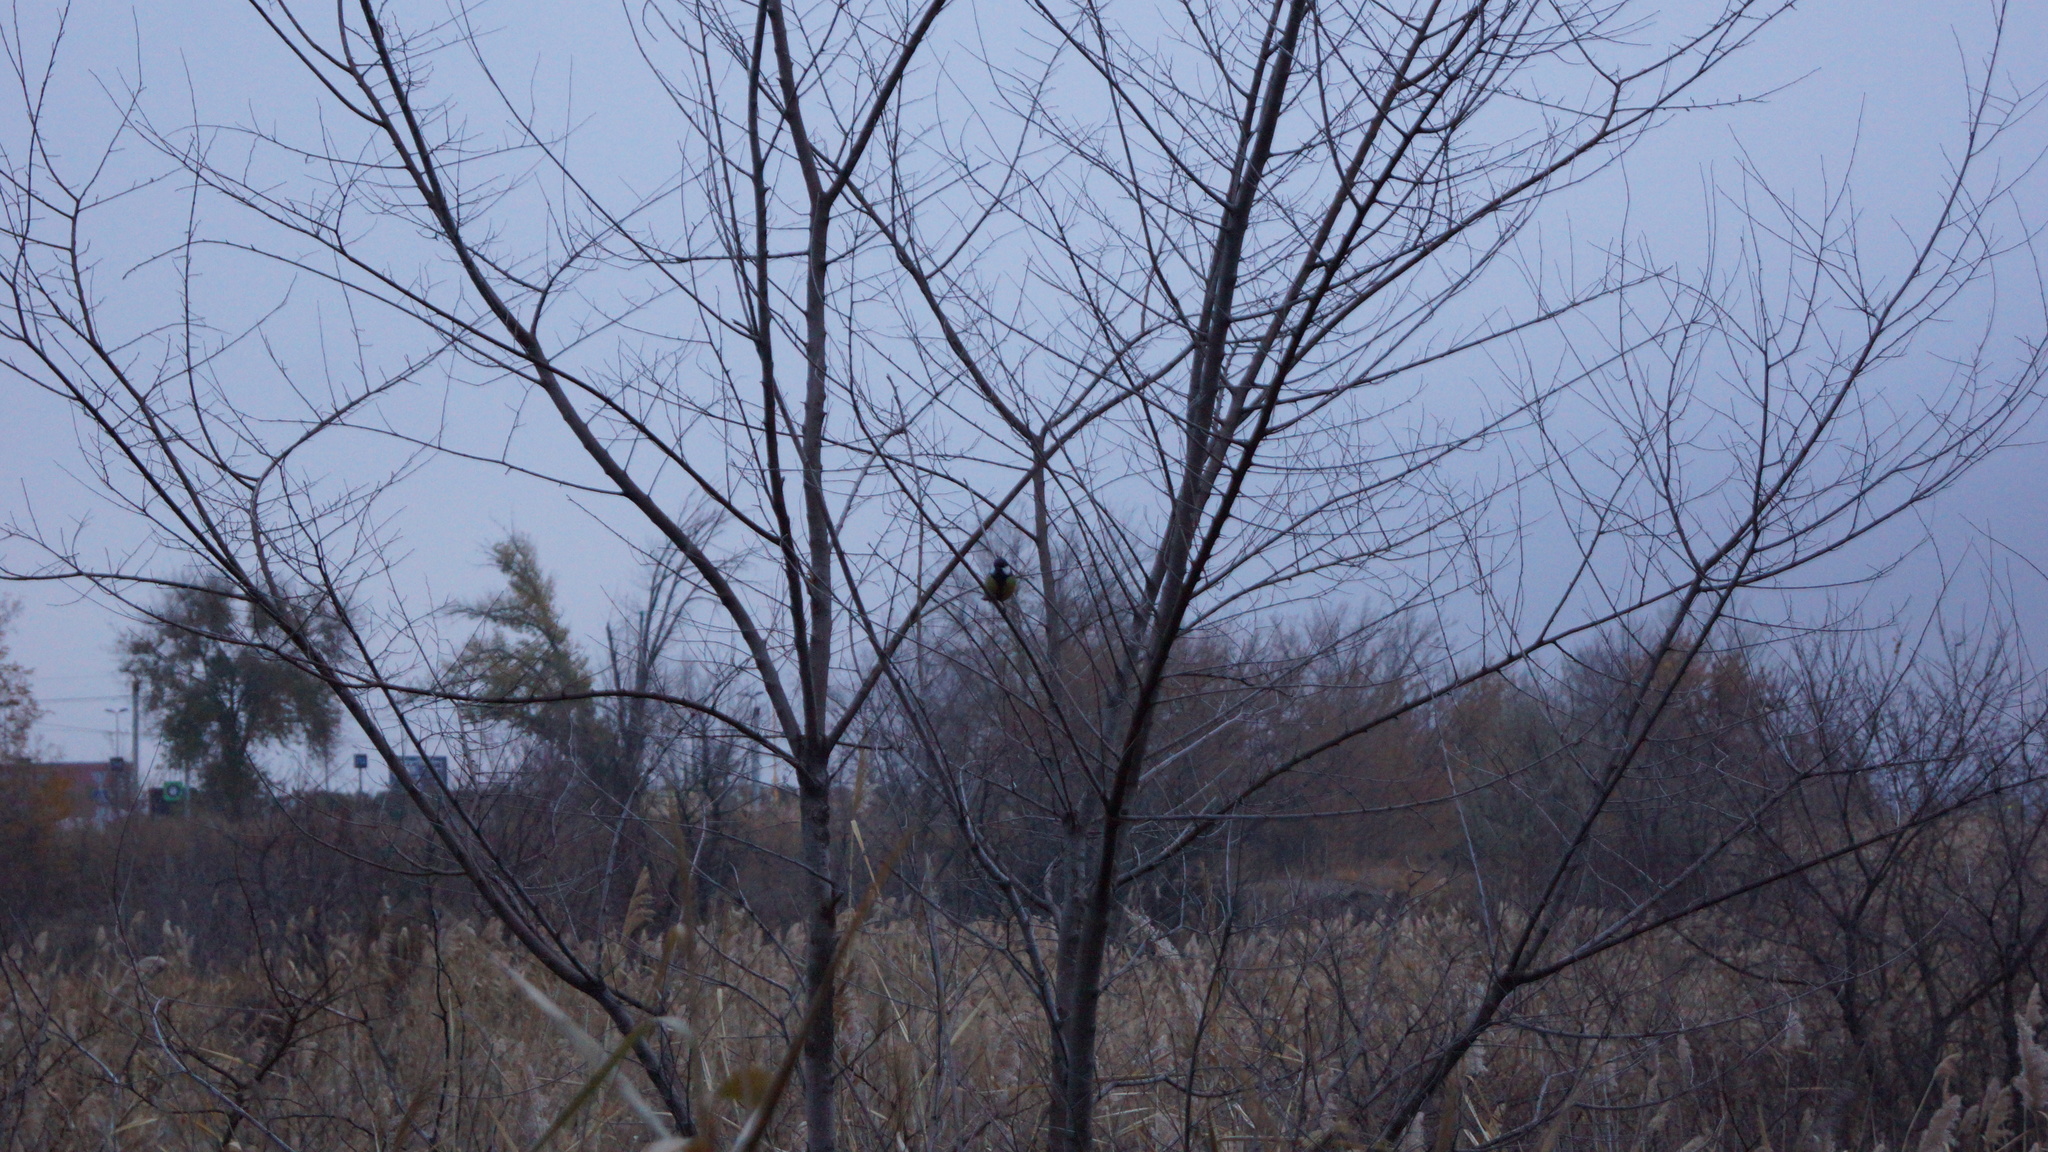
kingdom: Animalia
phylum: Chordata
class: Aves
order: Passeriformes
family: Paridae
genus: Parus
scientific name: Parus major
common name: Great tit
